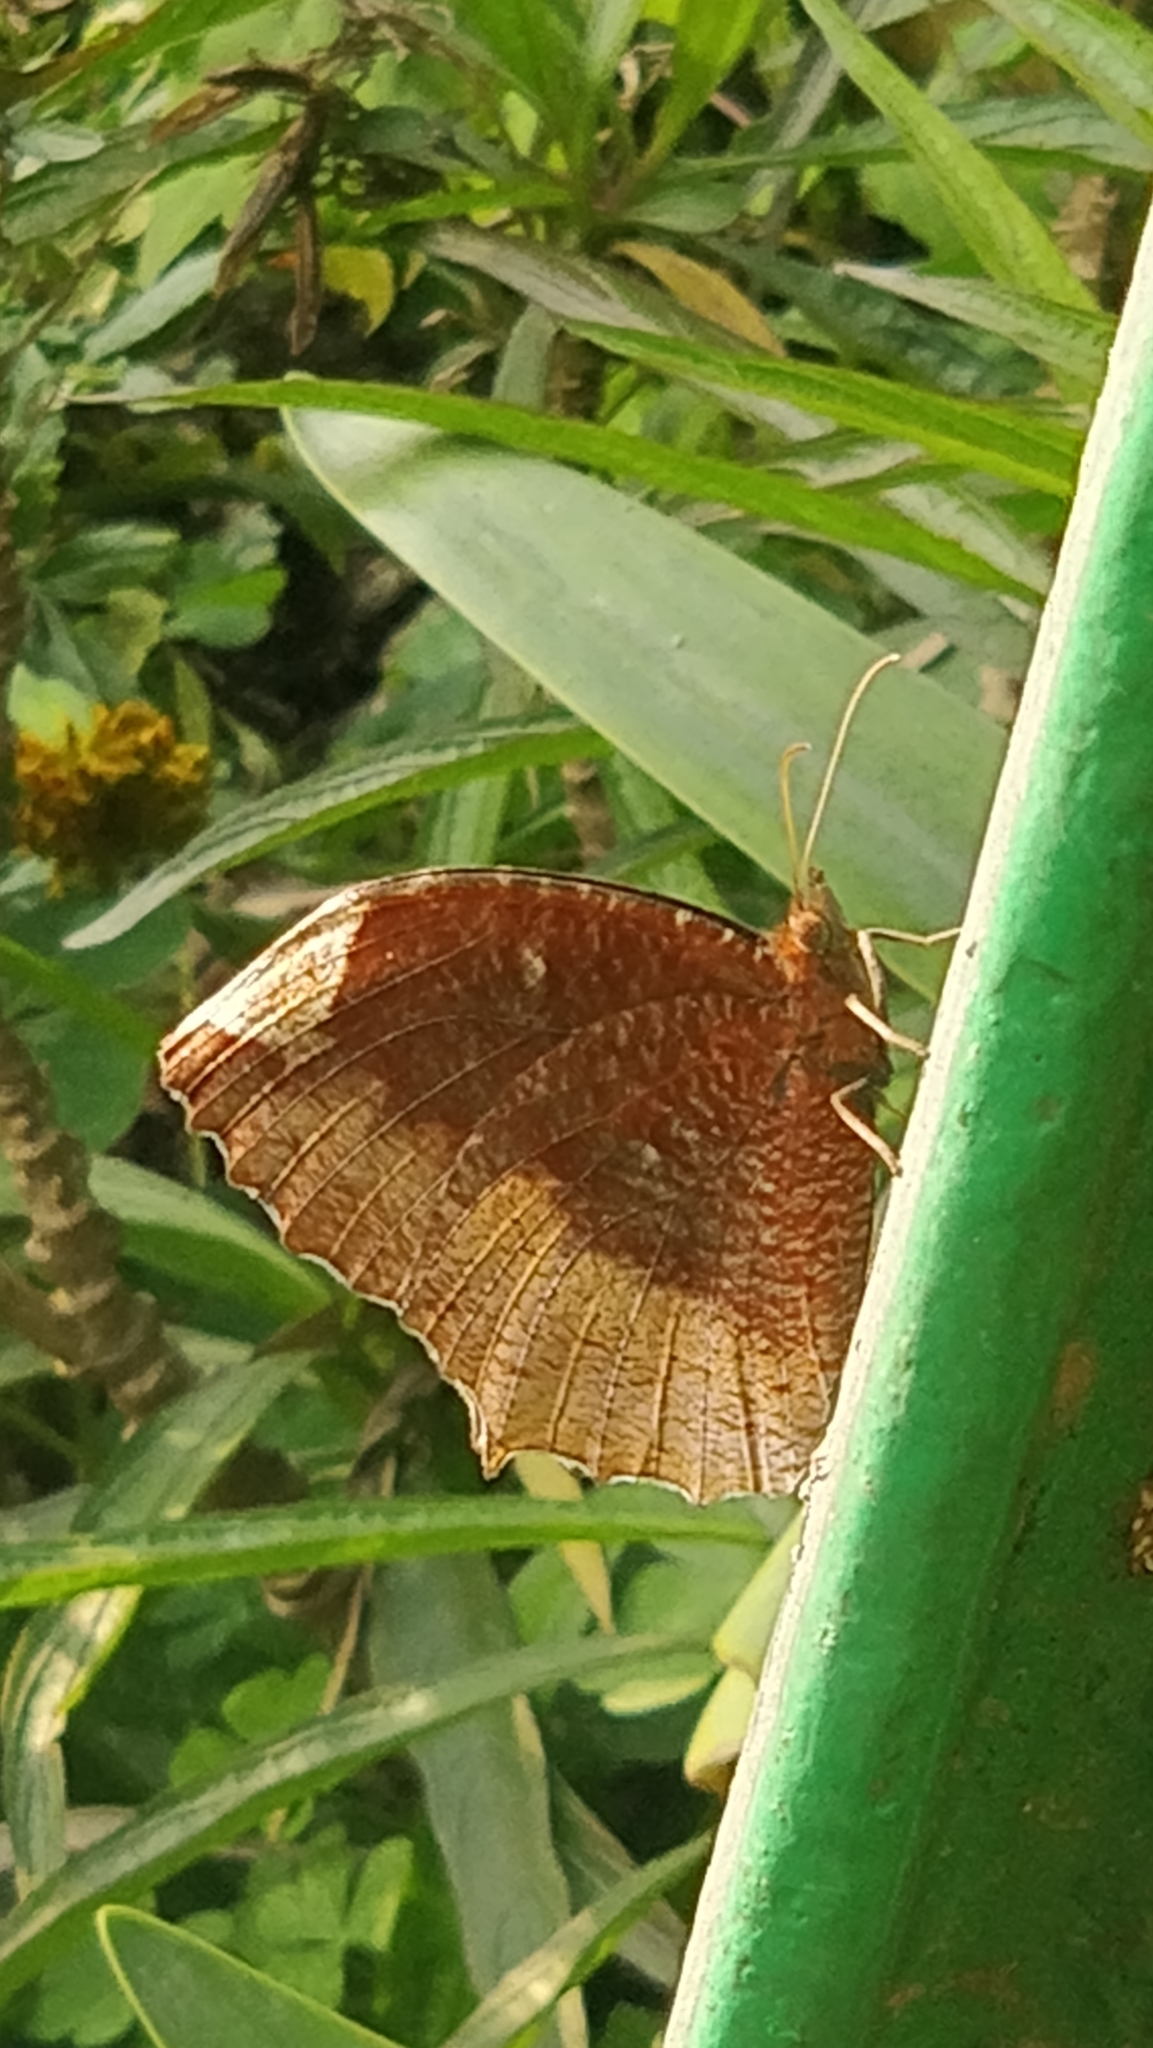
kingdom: Animalia
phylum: Arthropoda
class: Insecta
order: Lepidoptera
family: Nymphalidae
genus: Elymnias
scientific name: Elymnias hypermnestra
